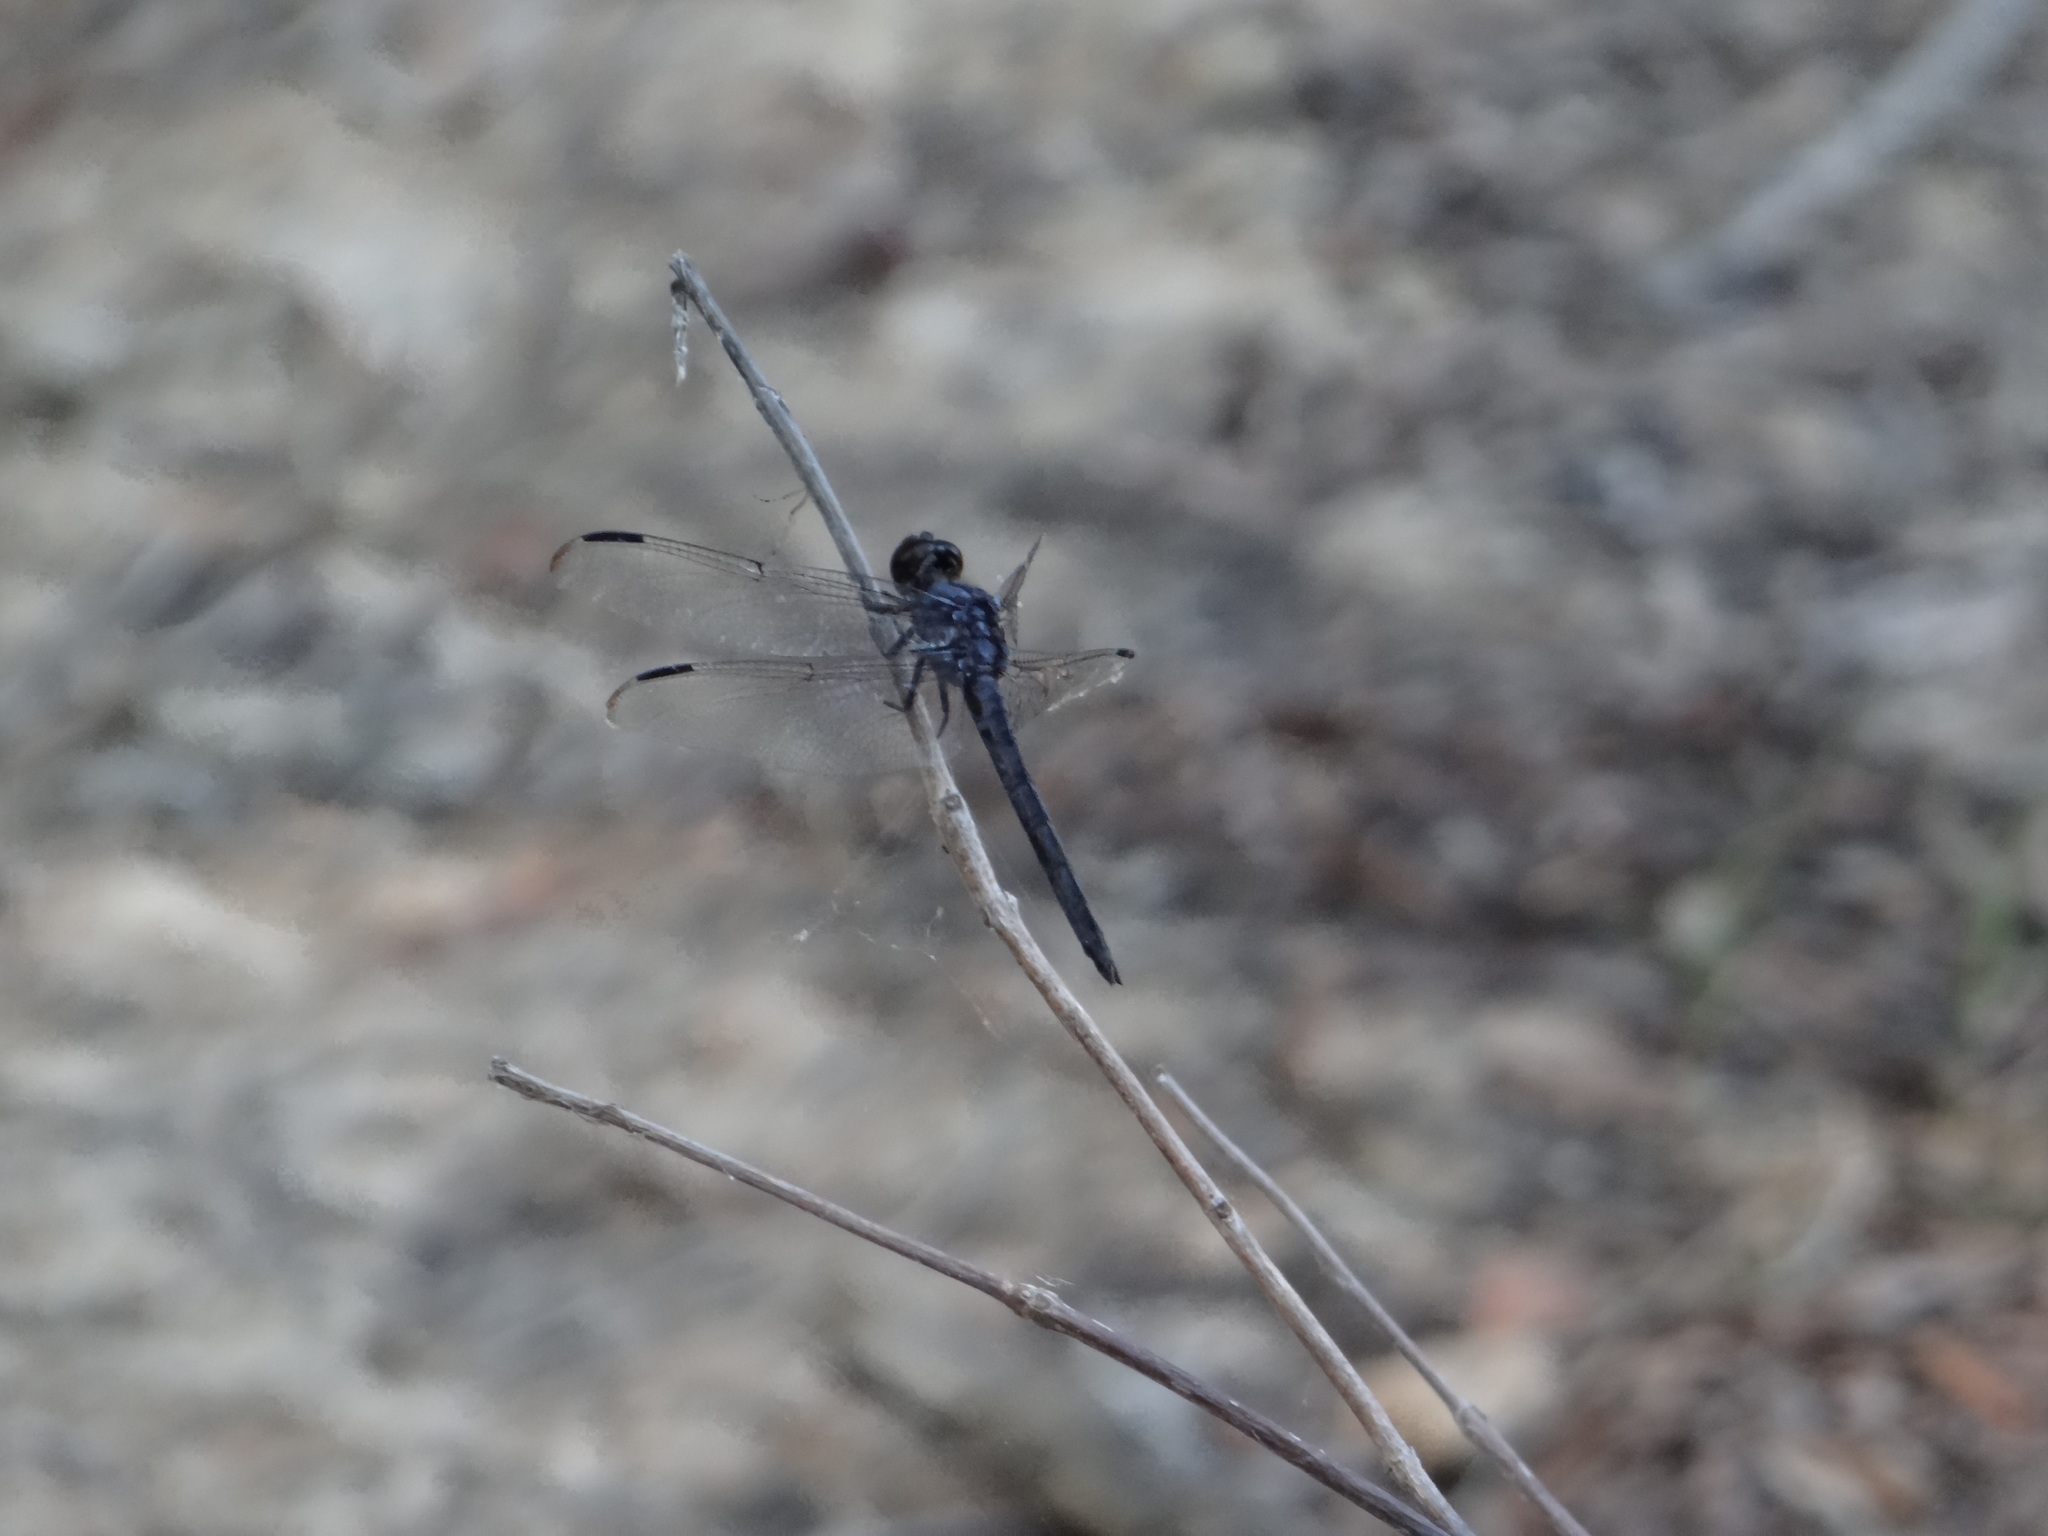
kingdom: Animalia
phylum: Arthropoda
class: Insecta
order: Odonata
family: Libellulidae
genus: Libellula
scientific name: Libellula incesta
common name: Slaty skimmer
